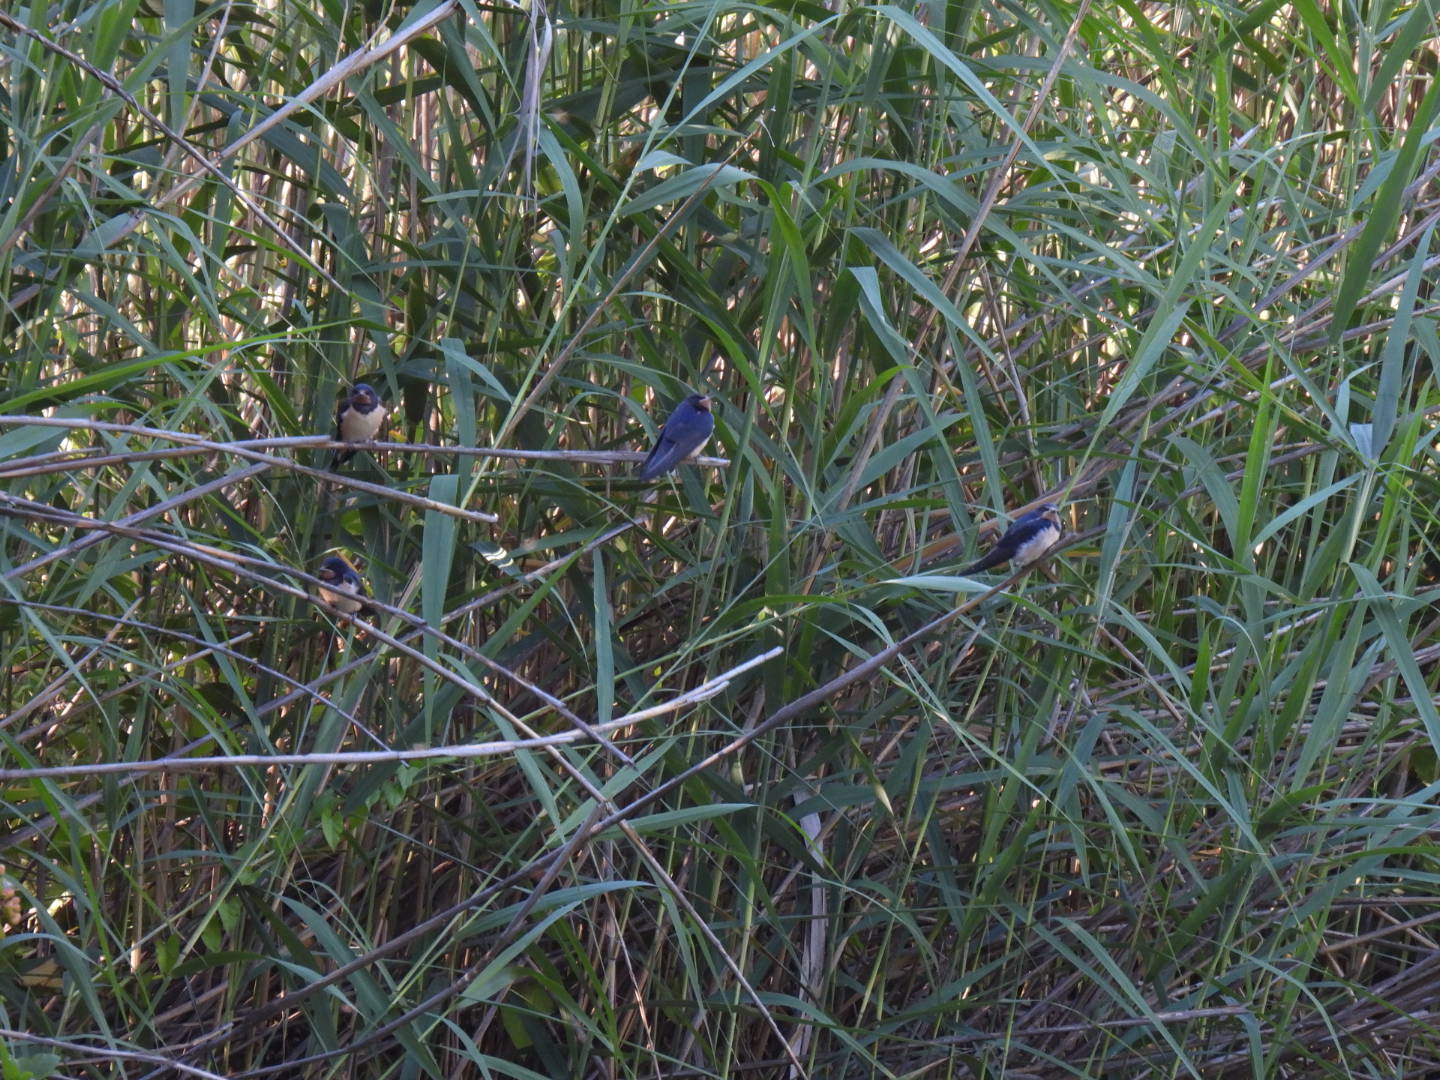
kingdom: Animalia
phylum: Chordata
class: Aves
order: Passeriformes
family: Hirundinidae
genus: Hirundo
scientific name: Hirundo rustica
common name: Barn swallow
